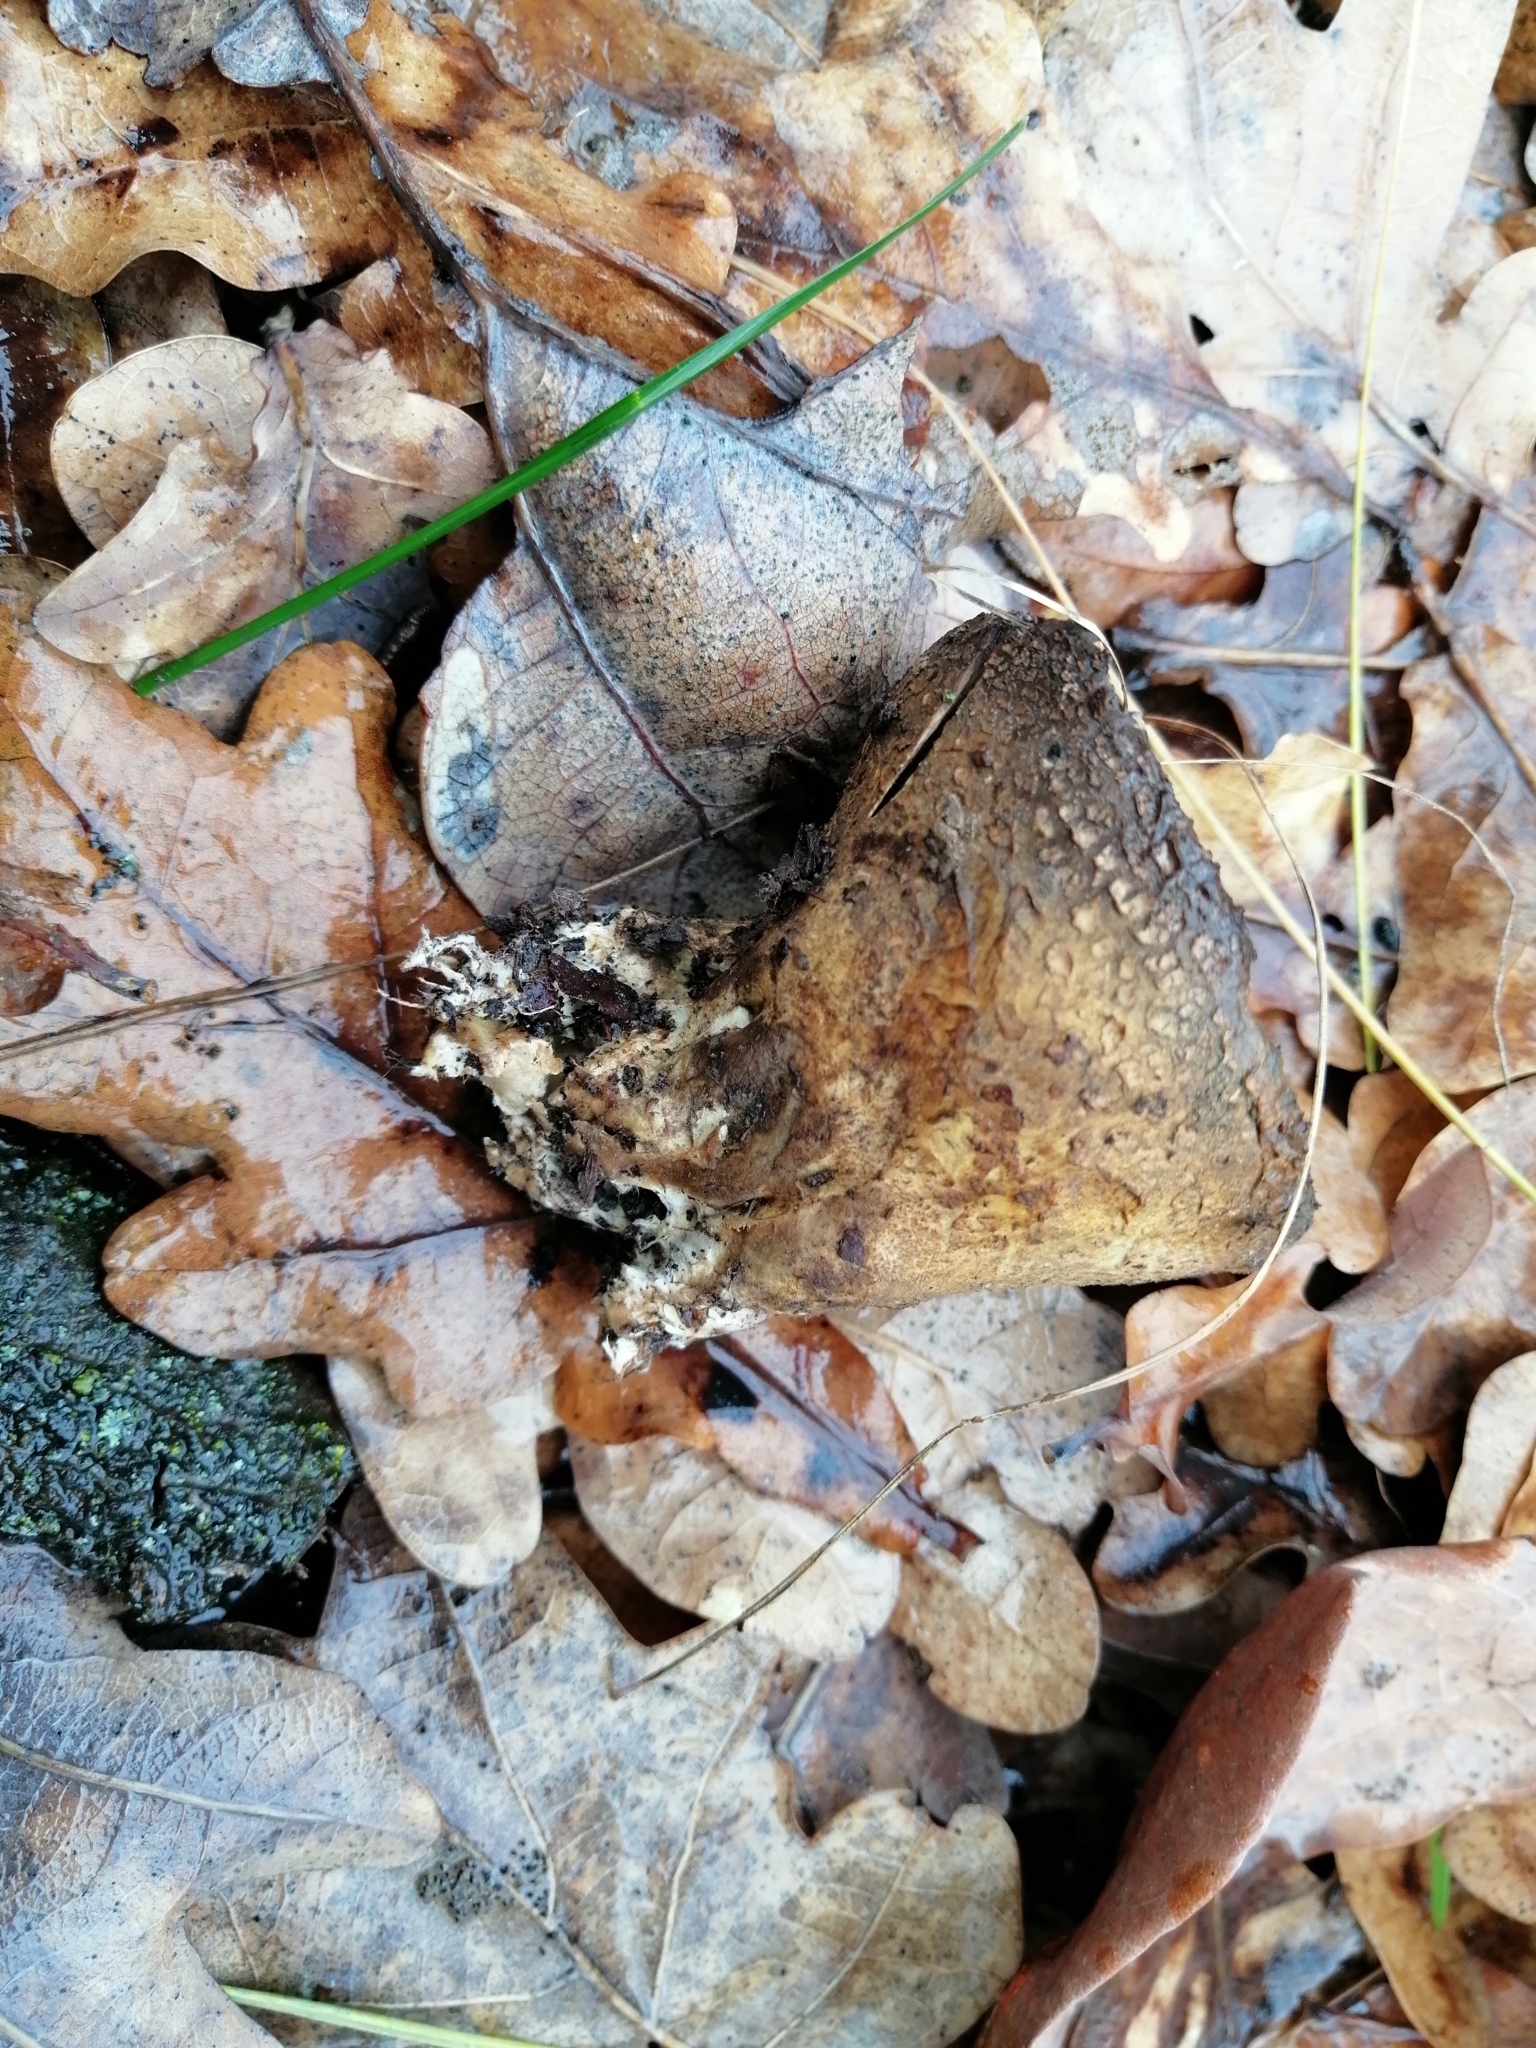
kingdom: Fungi
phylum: Basidiomycota
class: Agaricomycetes
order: Boletales
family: Sclerodermataceae
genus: Scleroderma
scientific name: Scleroderma verrucosum
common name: Scaly earthball
